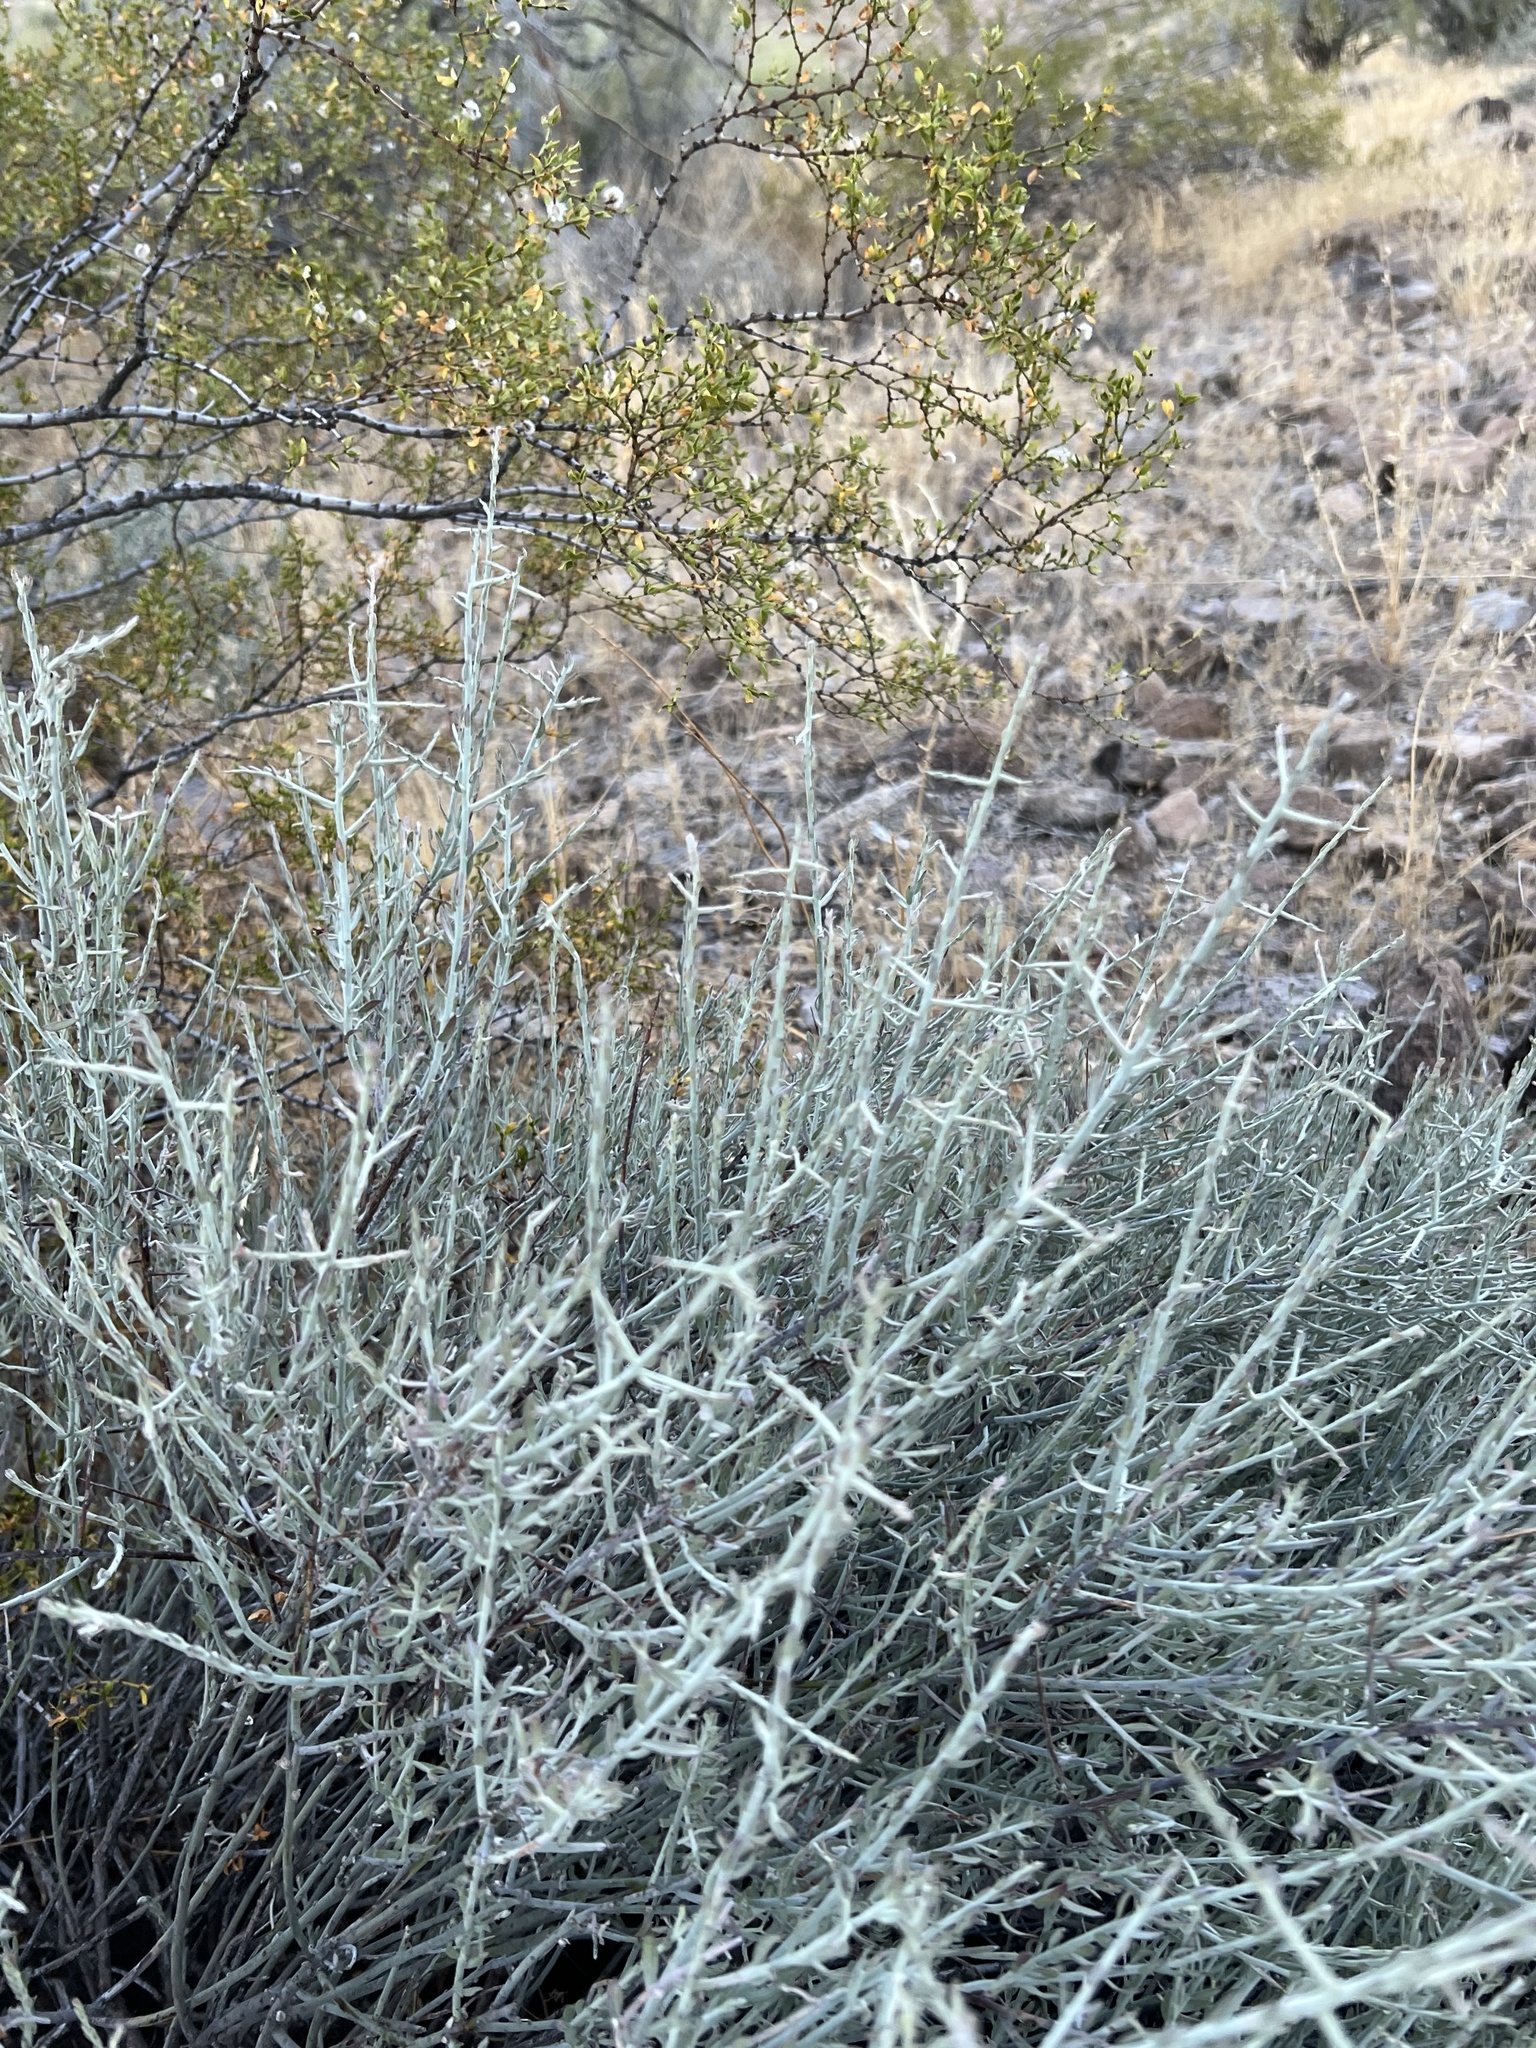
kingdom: Plantae
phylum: Tracheophyta
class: Magnoliopsida
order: Zygophyllales
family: Krameriaceae
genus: Krameria
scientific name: Krameria bicolor
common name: White ratany
